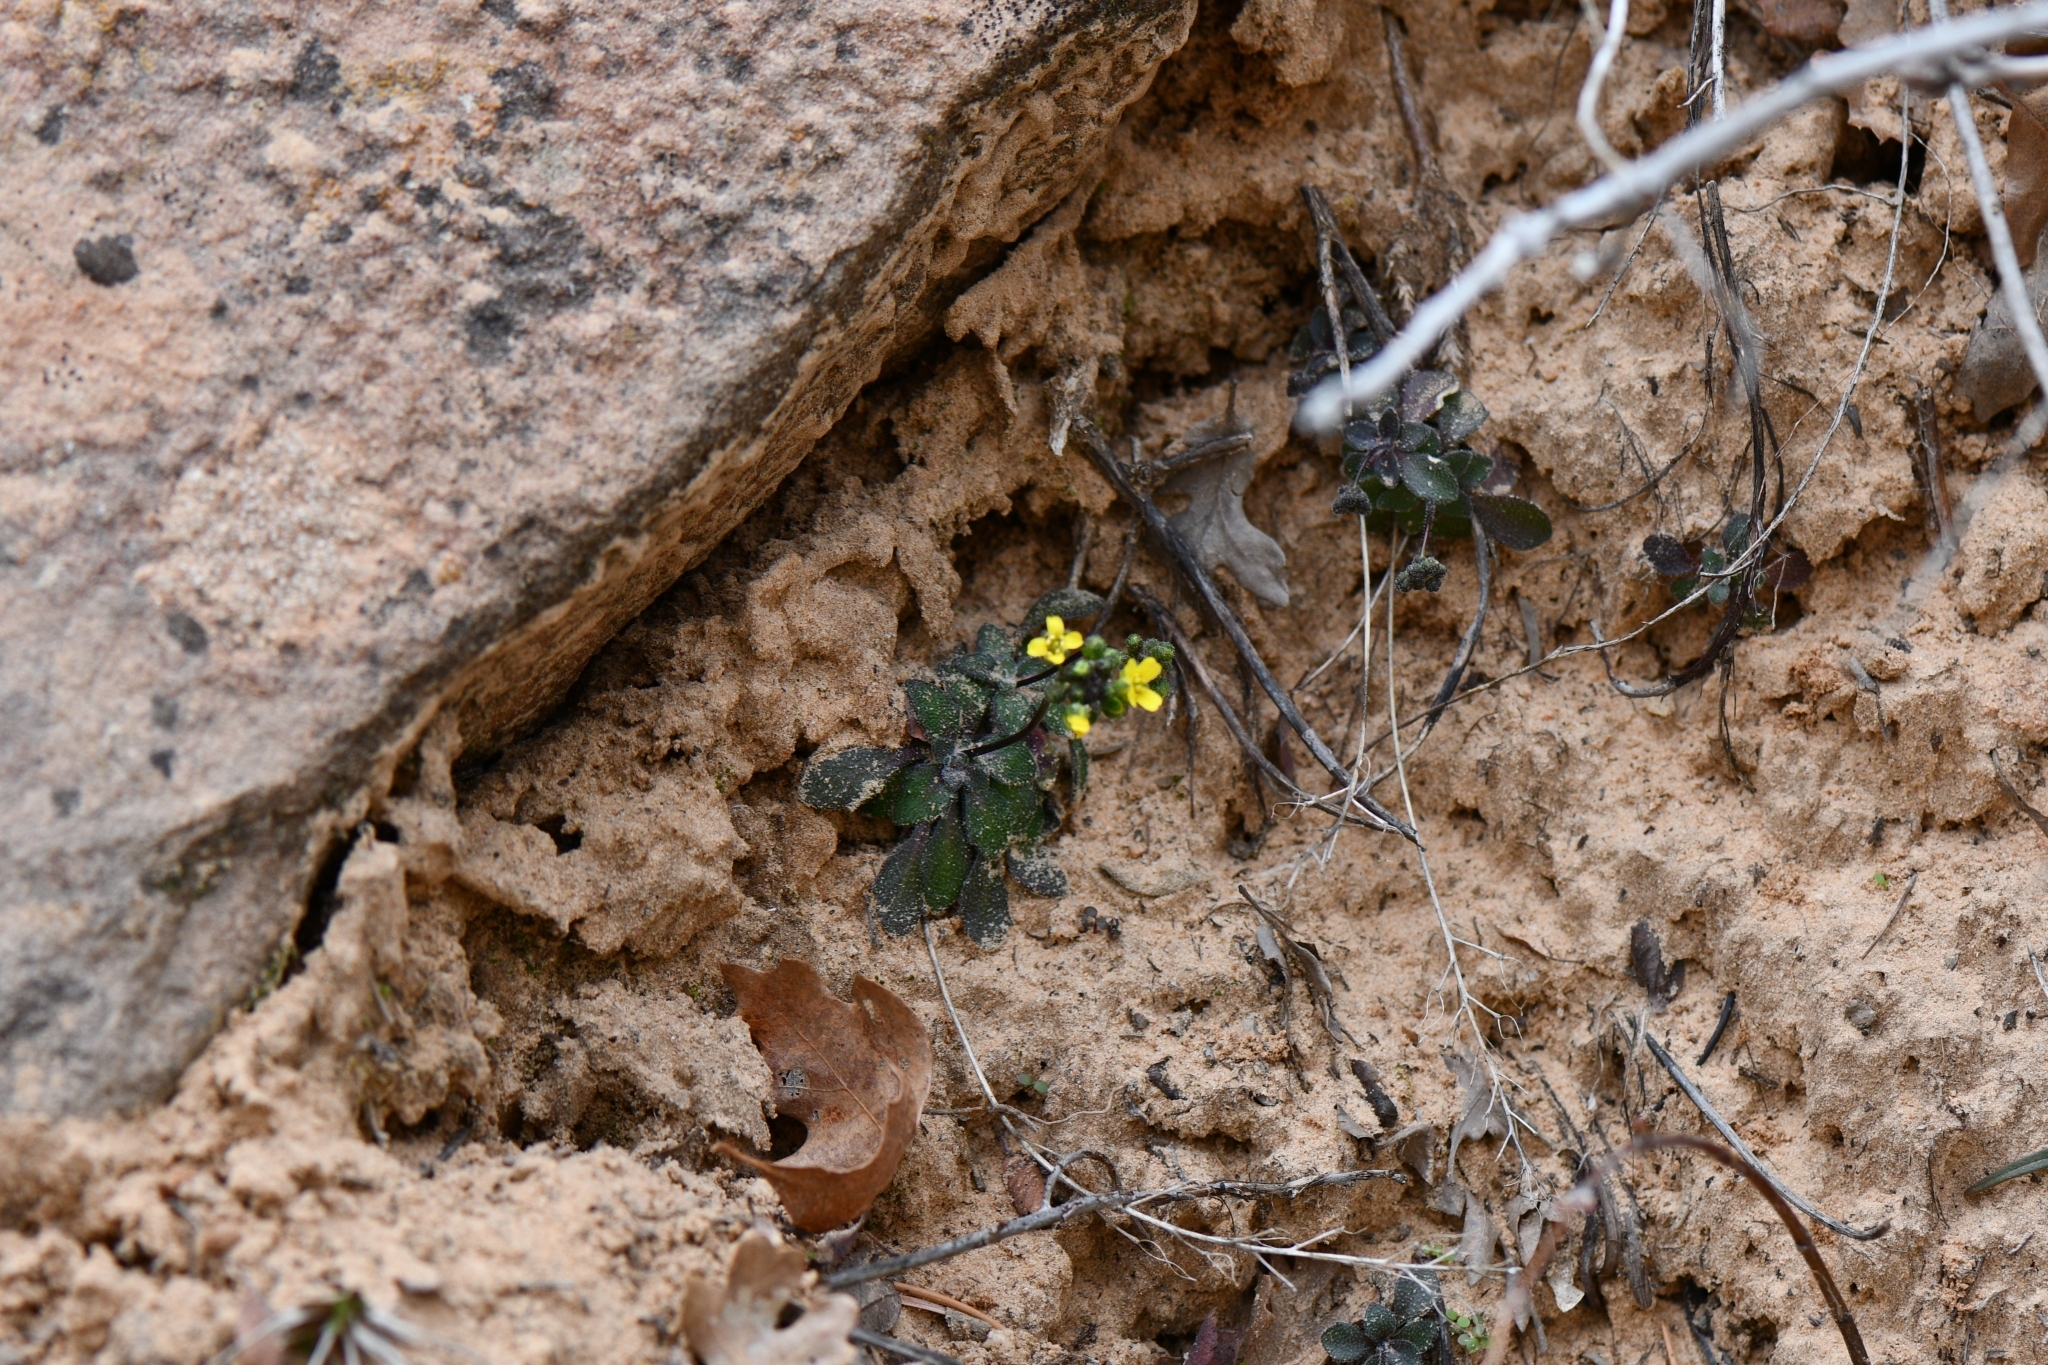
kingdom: Plantae
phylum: Tracheophyta
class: Magnoliopsida
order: Brassicales
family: Brassicaceae
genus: Draba
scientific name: Draba zionensis
